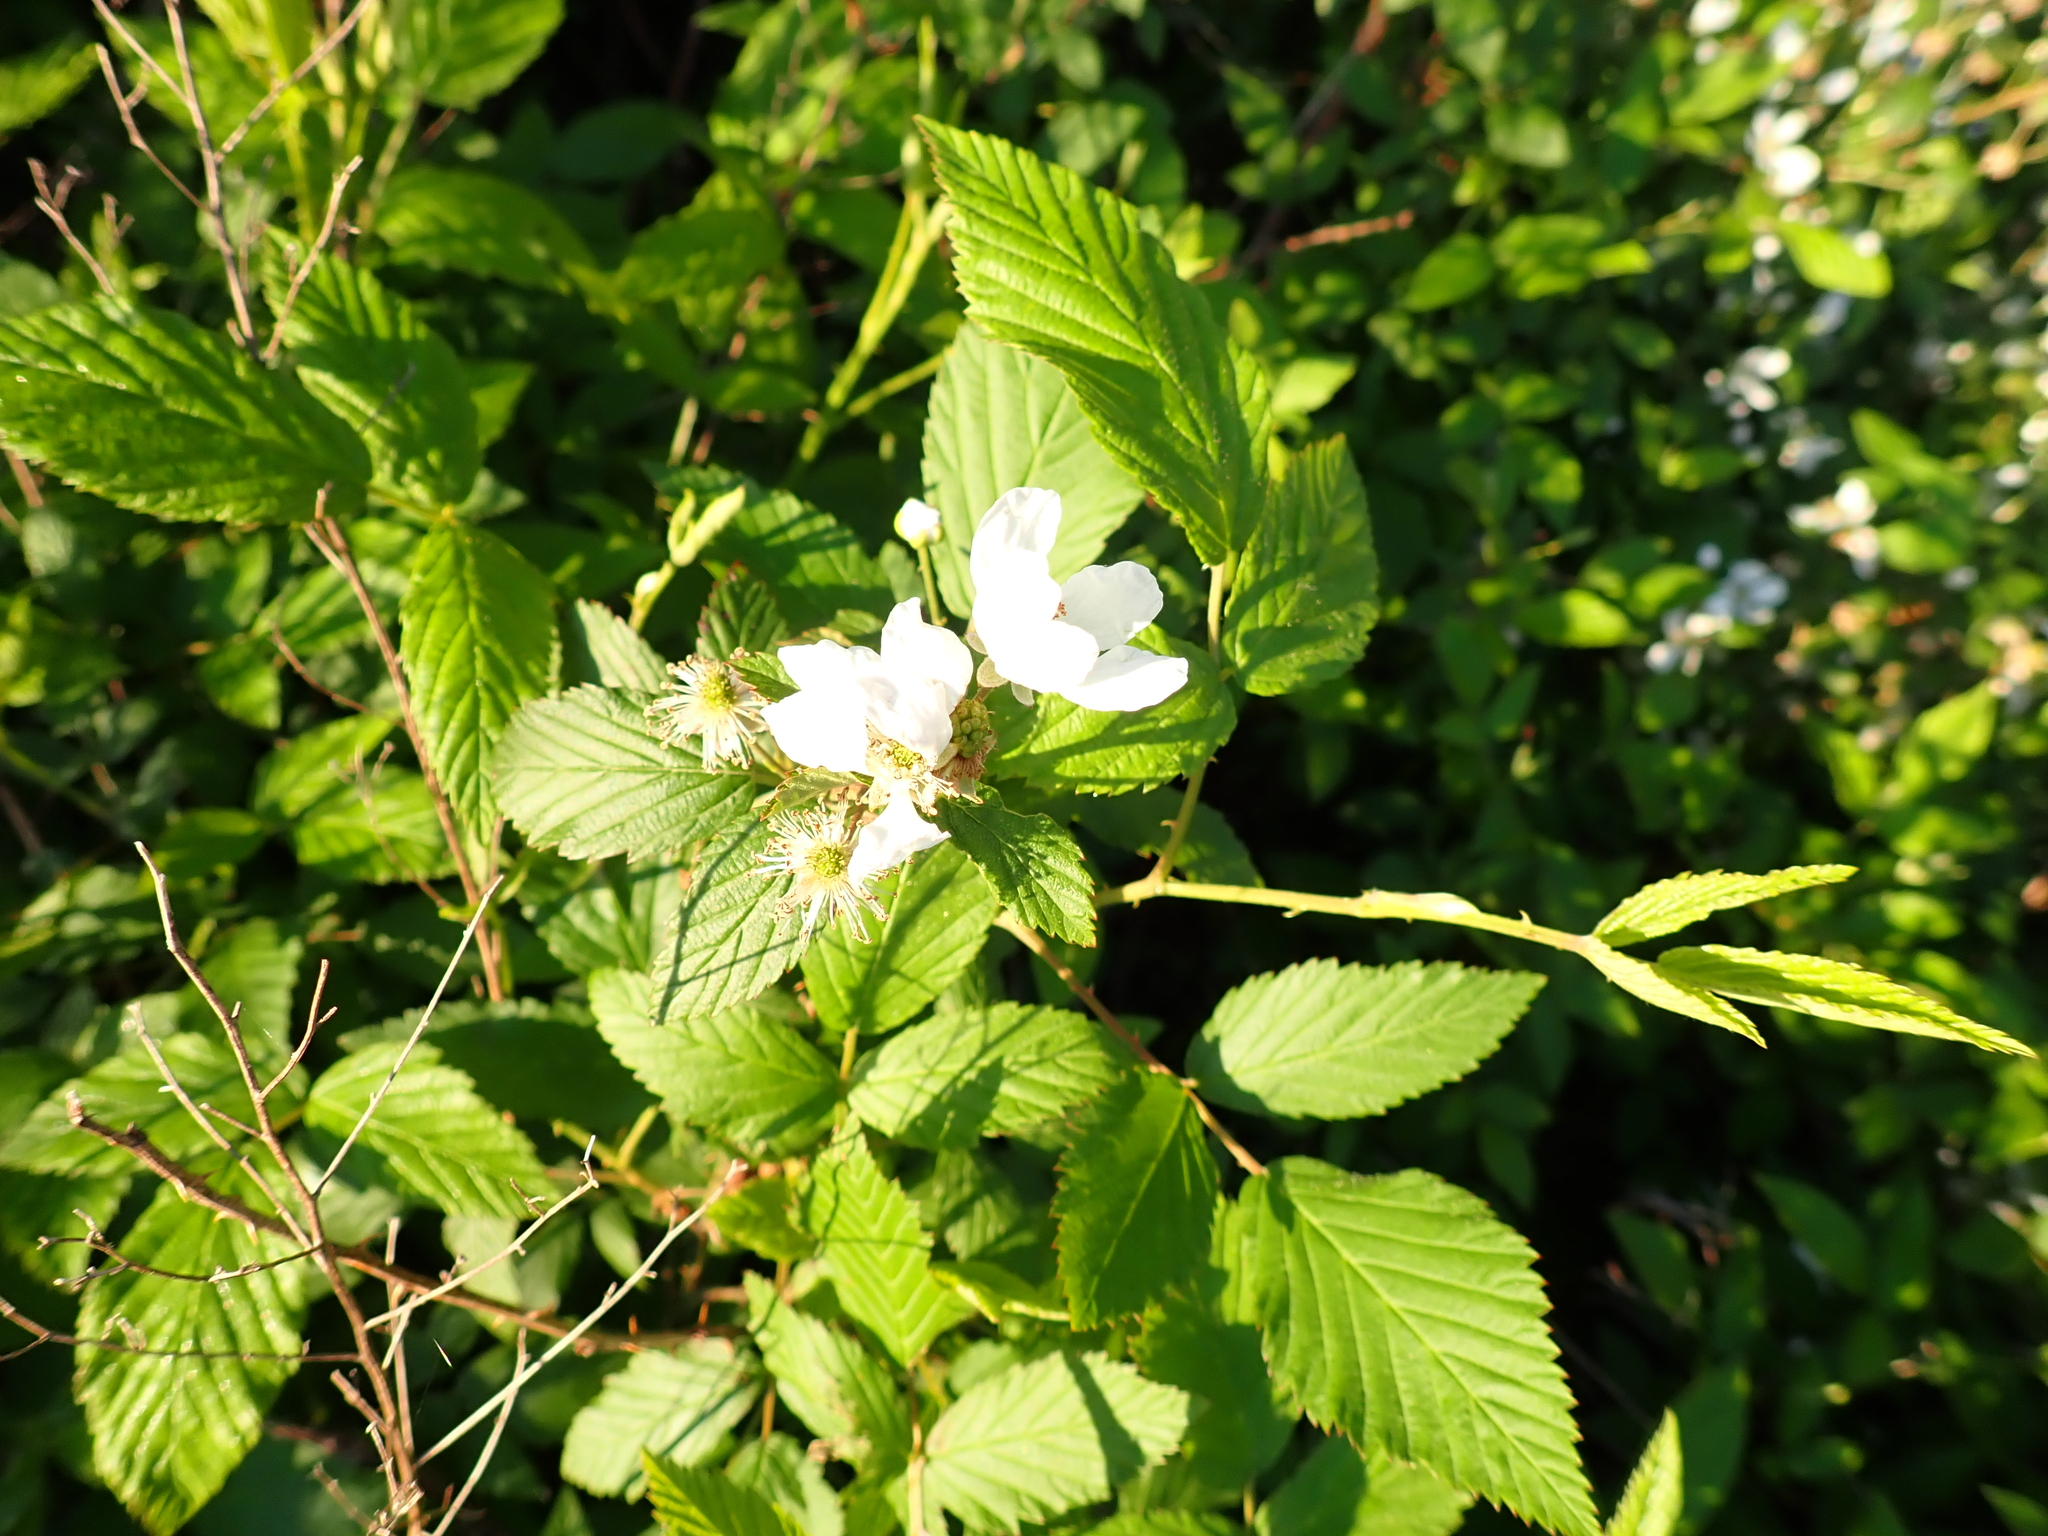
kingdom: Plantae
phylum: Tracheophyta
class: Magnoliopsida
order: Rosales
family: Rosaceae
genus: Rubus
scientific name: Rubus pensilvanicus
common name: Pennsylvania blackberry
